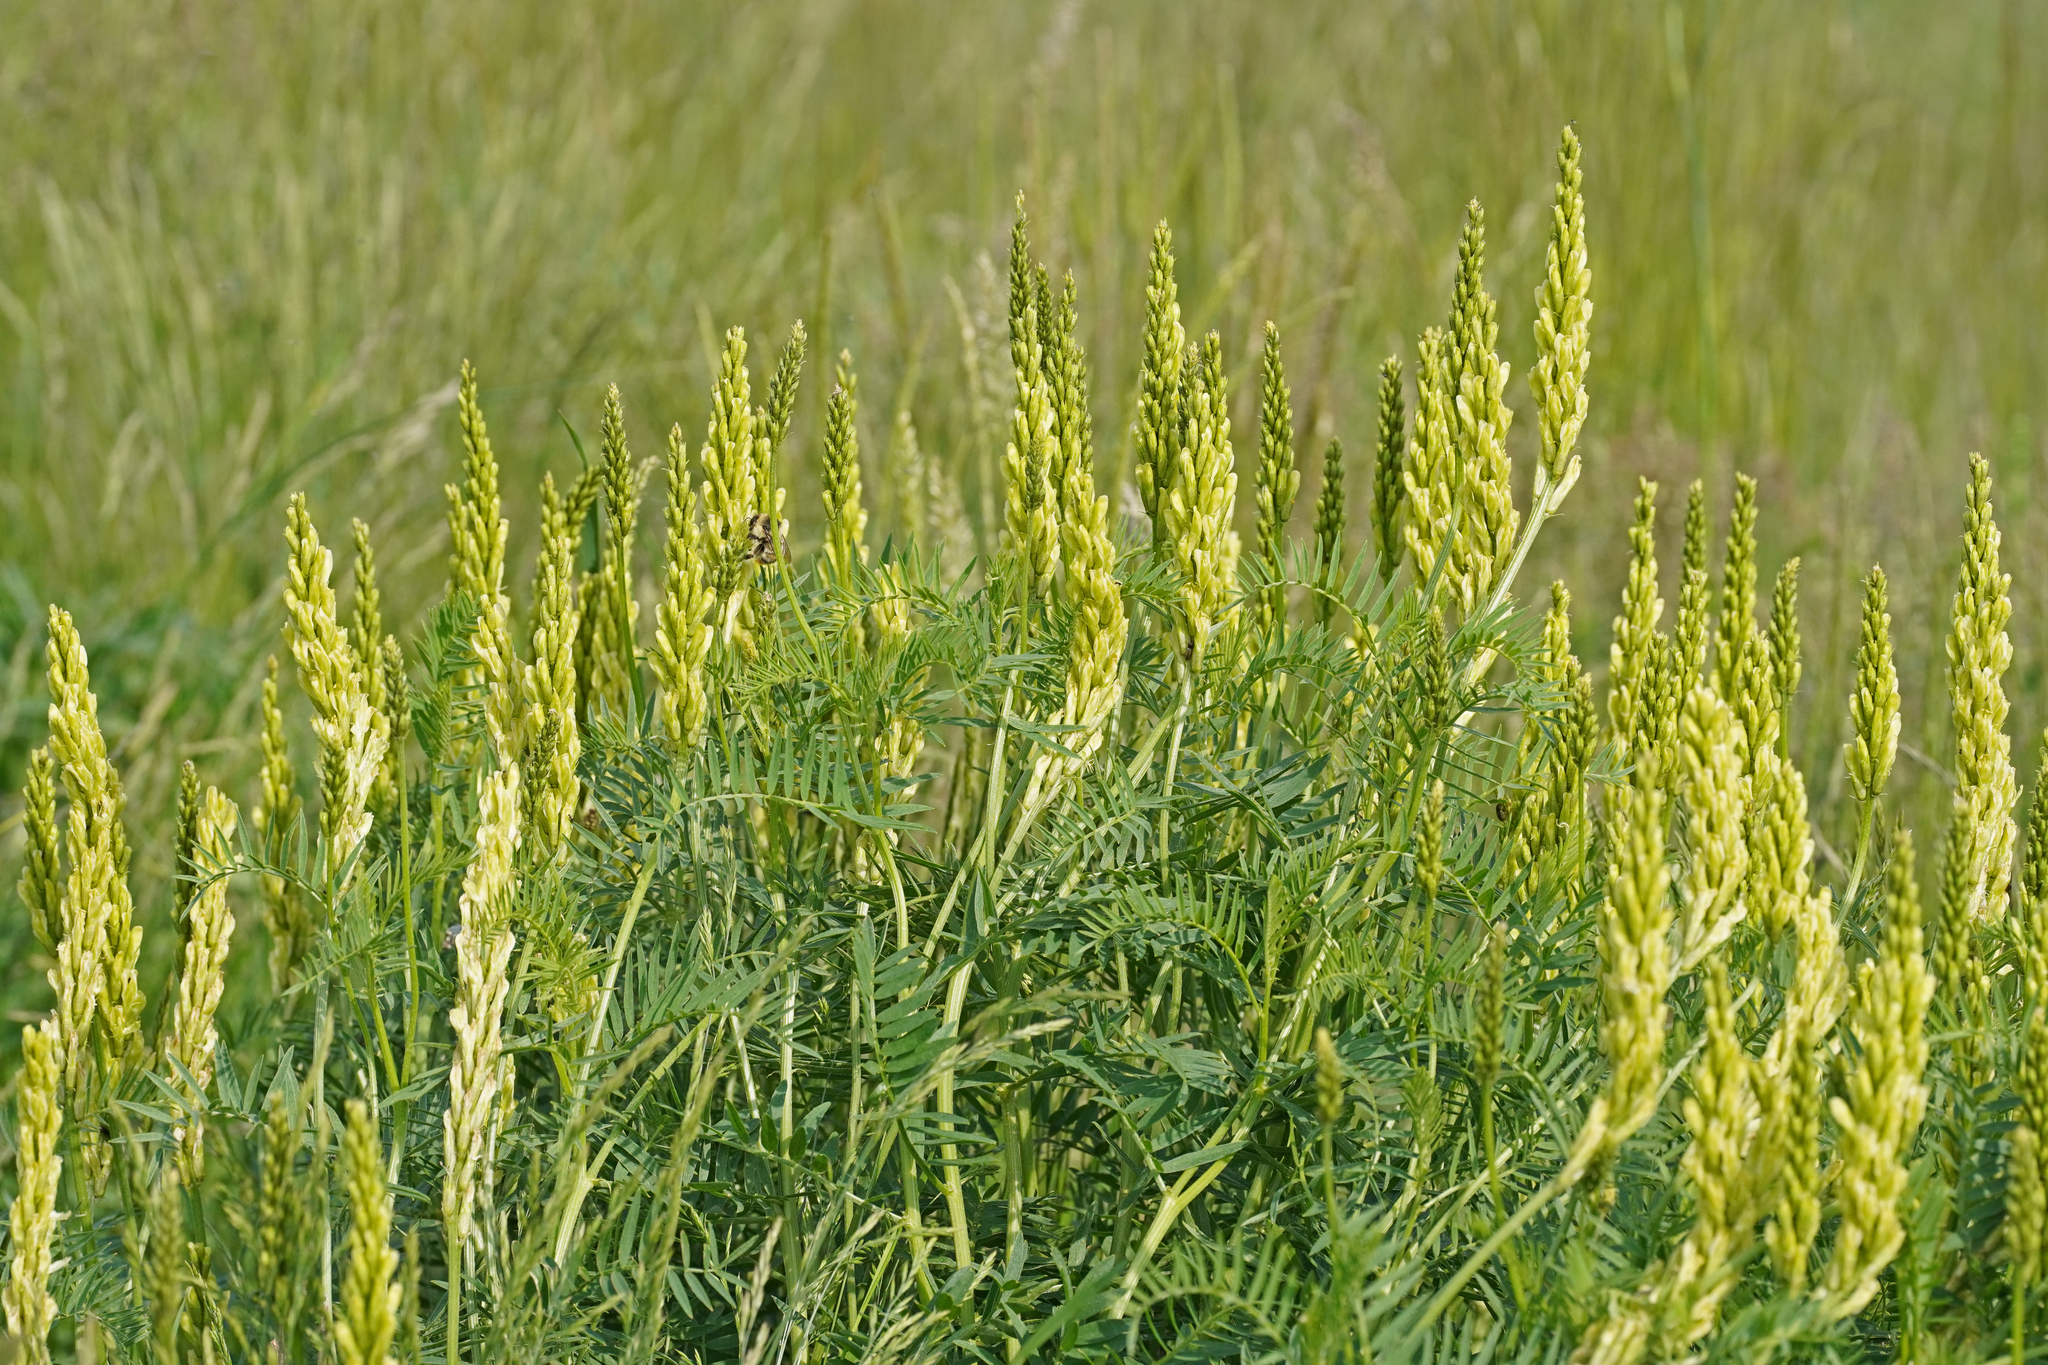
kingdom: Plantae
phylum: Tracheophyta
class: Magnoliopsida
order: Fabales
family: Fabaceae
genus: Astragalus
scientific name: Astragalus asper
